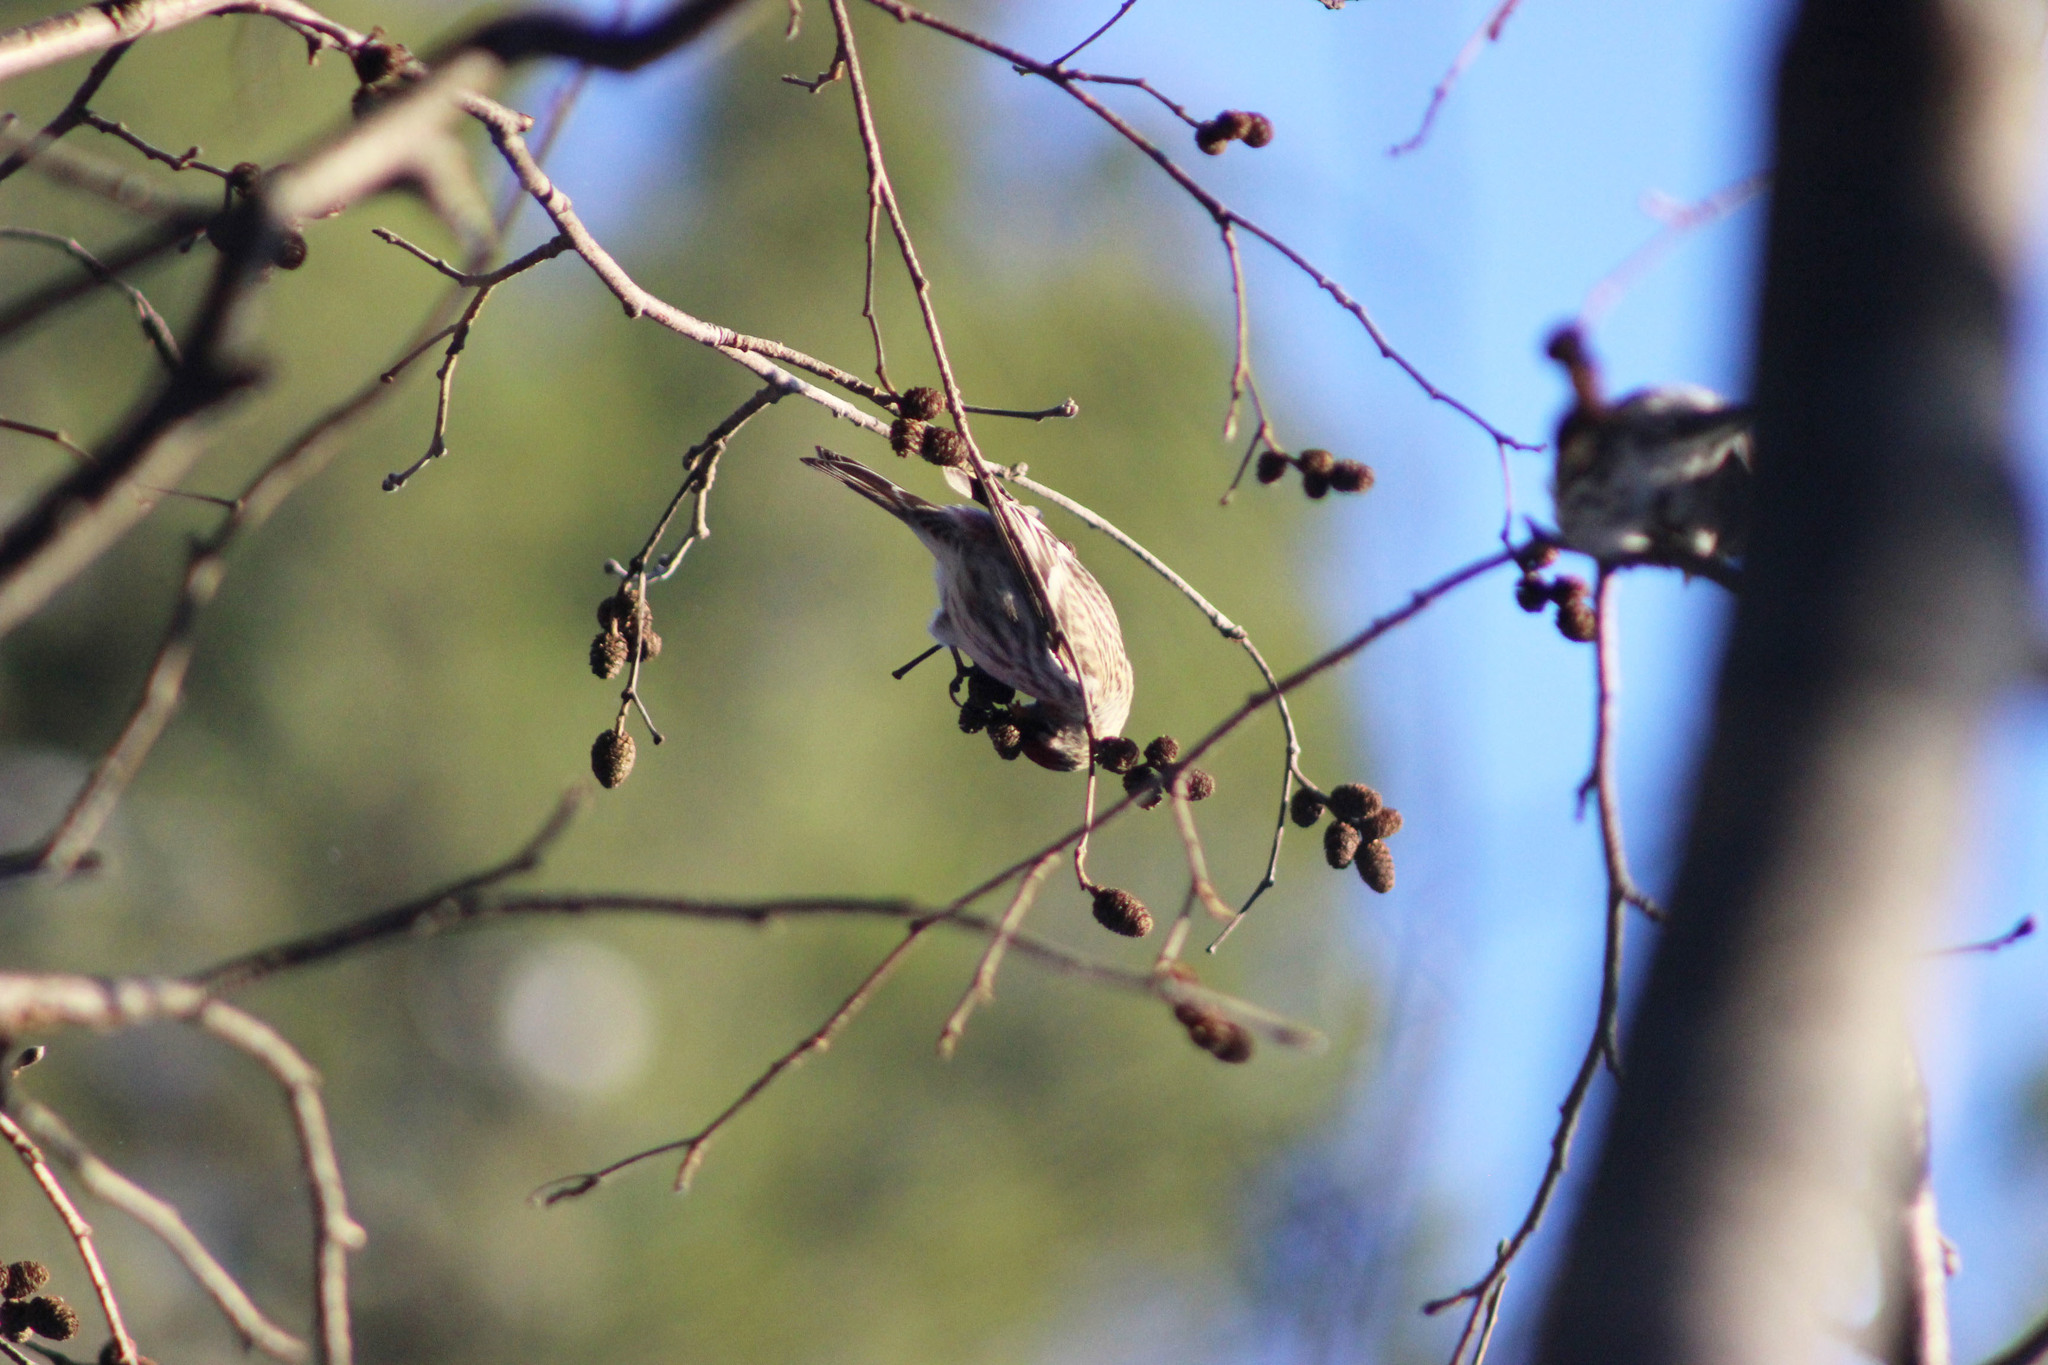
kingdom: Animalia
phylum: Chordata
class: Aves
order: Passeriformes
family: Fringillidae
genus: Acanthis
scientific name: Acanthis flammea
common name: Common redpoll
